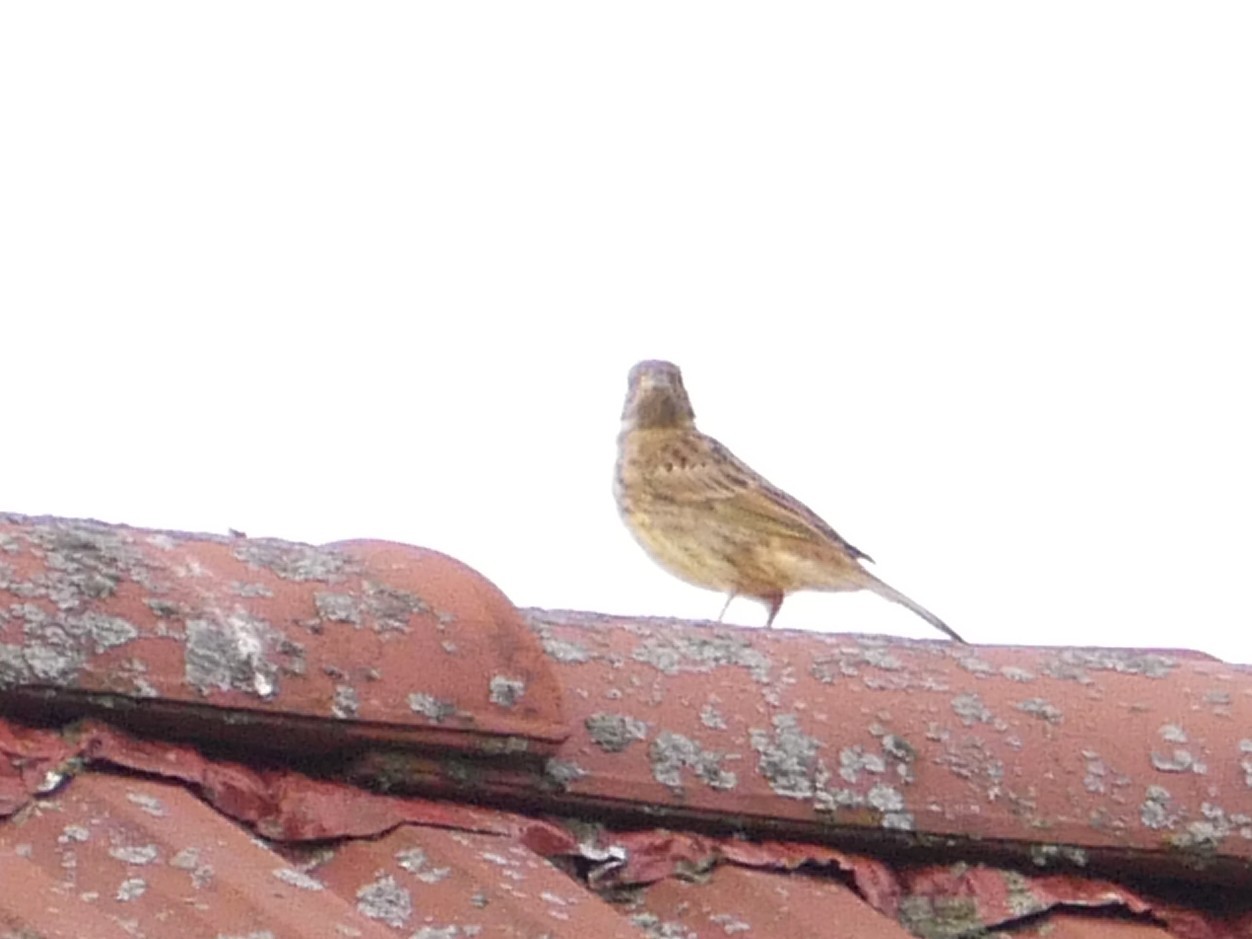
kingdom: Animalia
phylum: Chordata
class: Aves
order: Passeriformes
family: Emberizidae
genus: Emberiza
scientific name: Emberiza citrinella
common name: Yellowhammer
